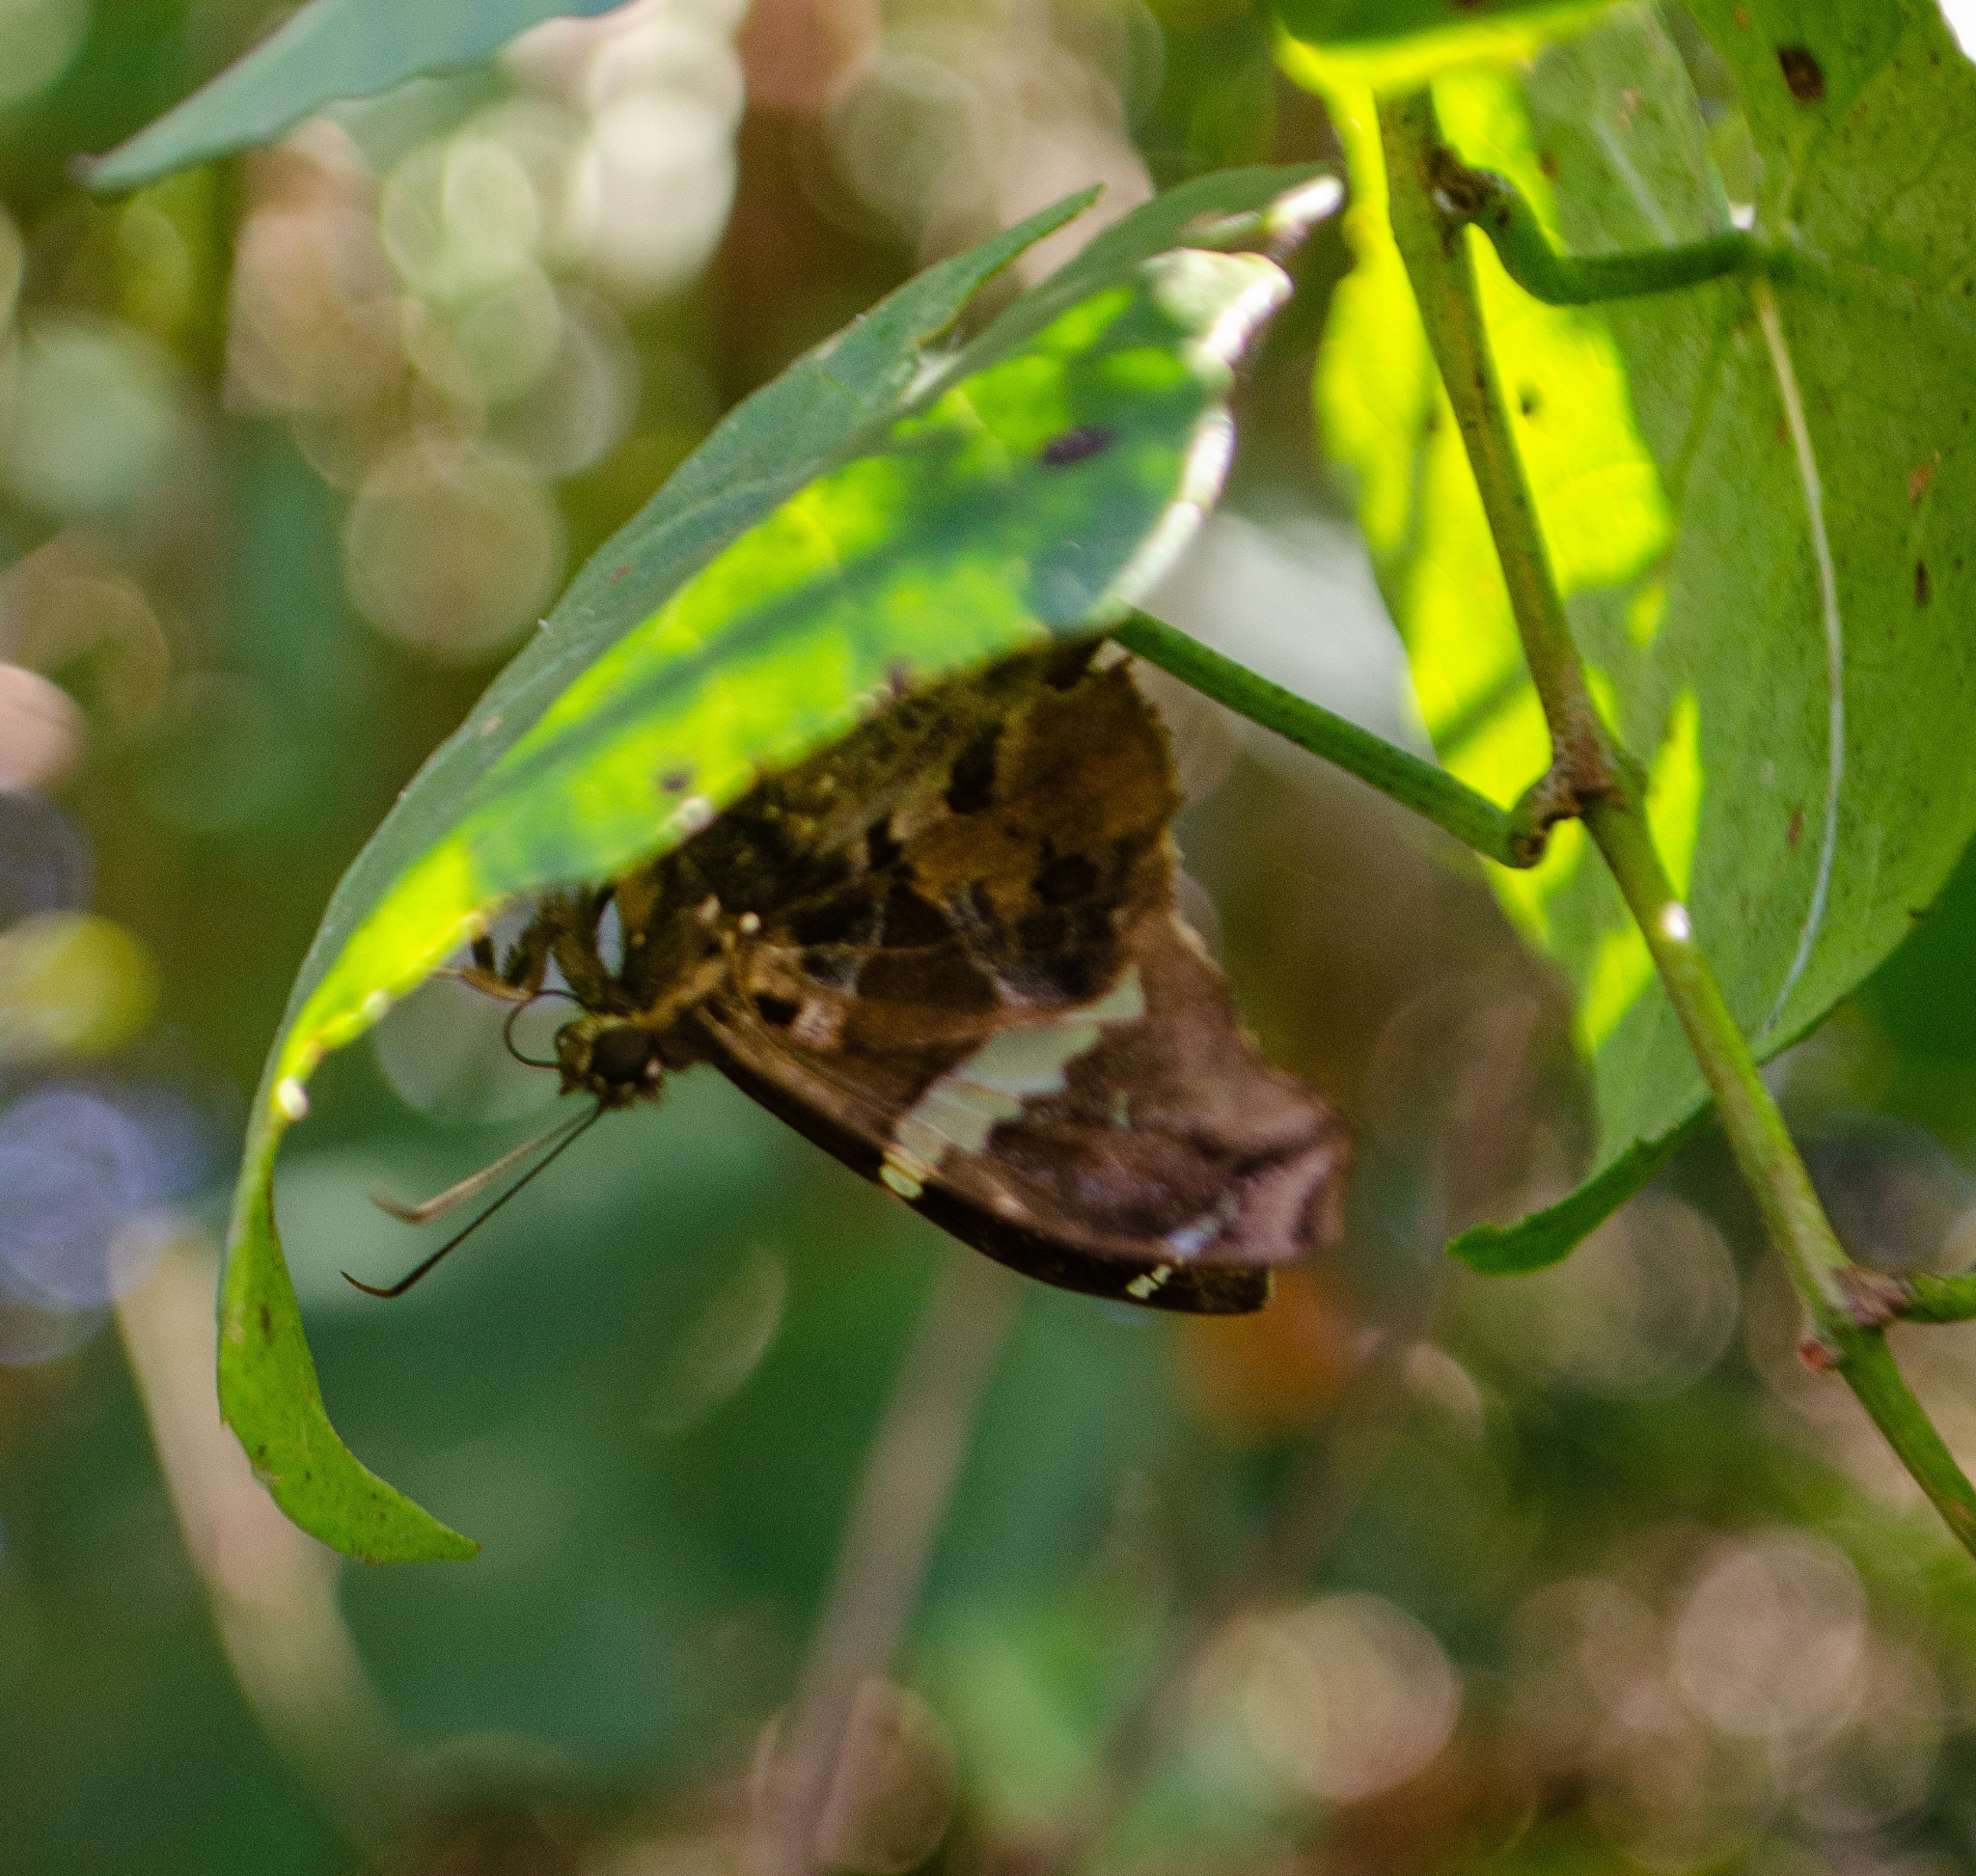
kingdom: Animalia
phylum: Arthropoda
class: Insecta
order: Lepidoptera
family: Hesperiidae
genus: Spathilepia
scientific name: Spathilepia clonius
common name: Falcate skipper
